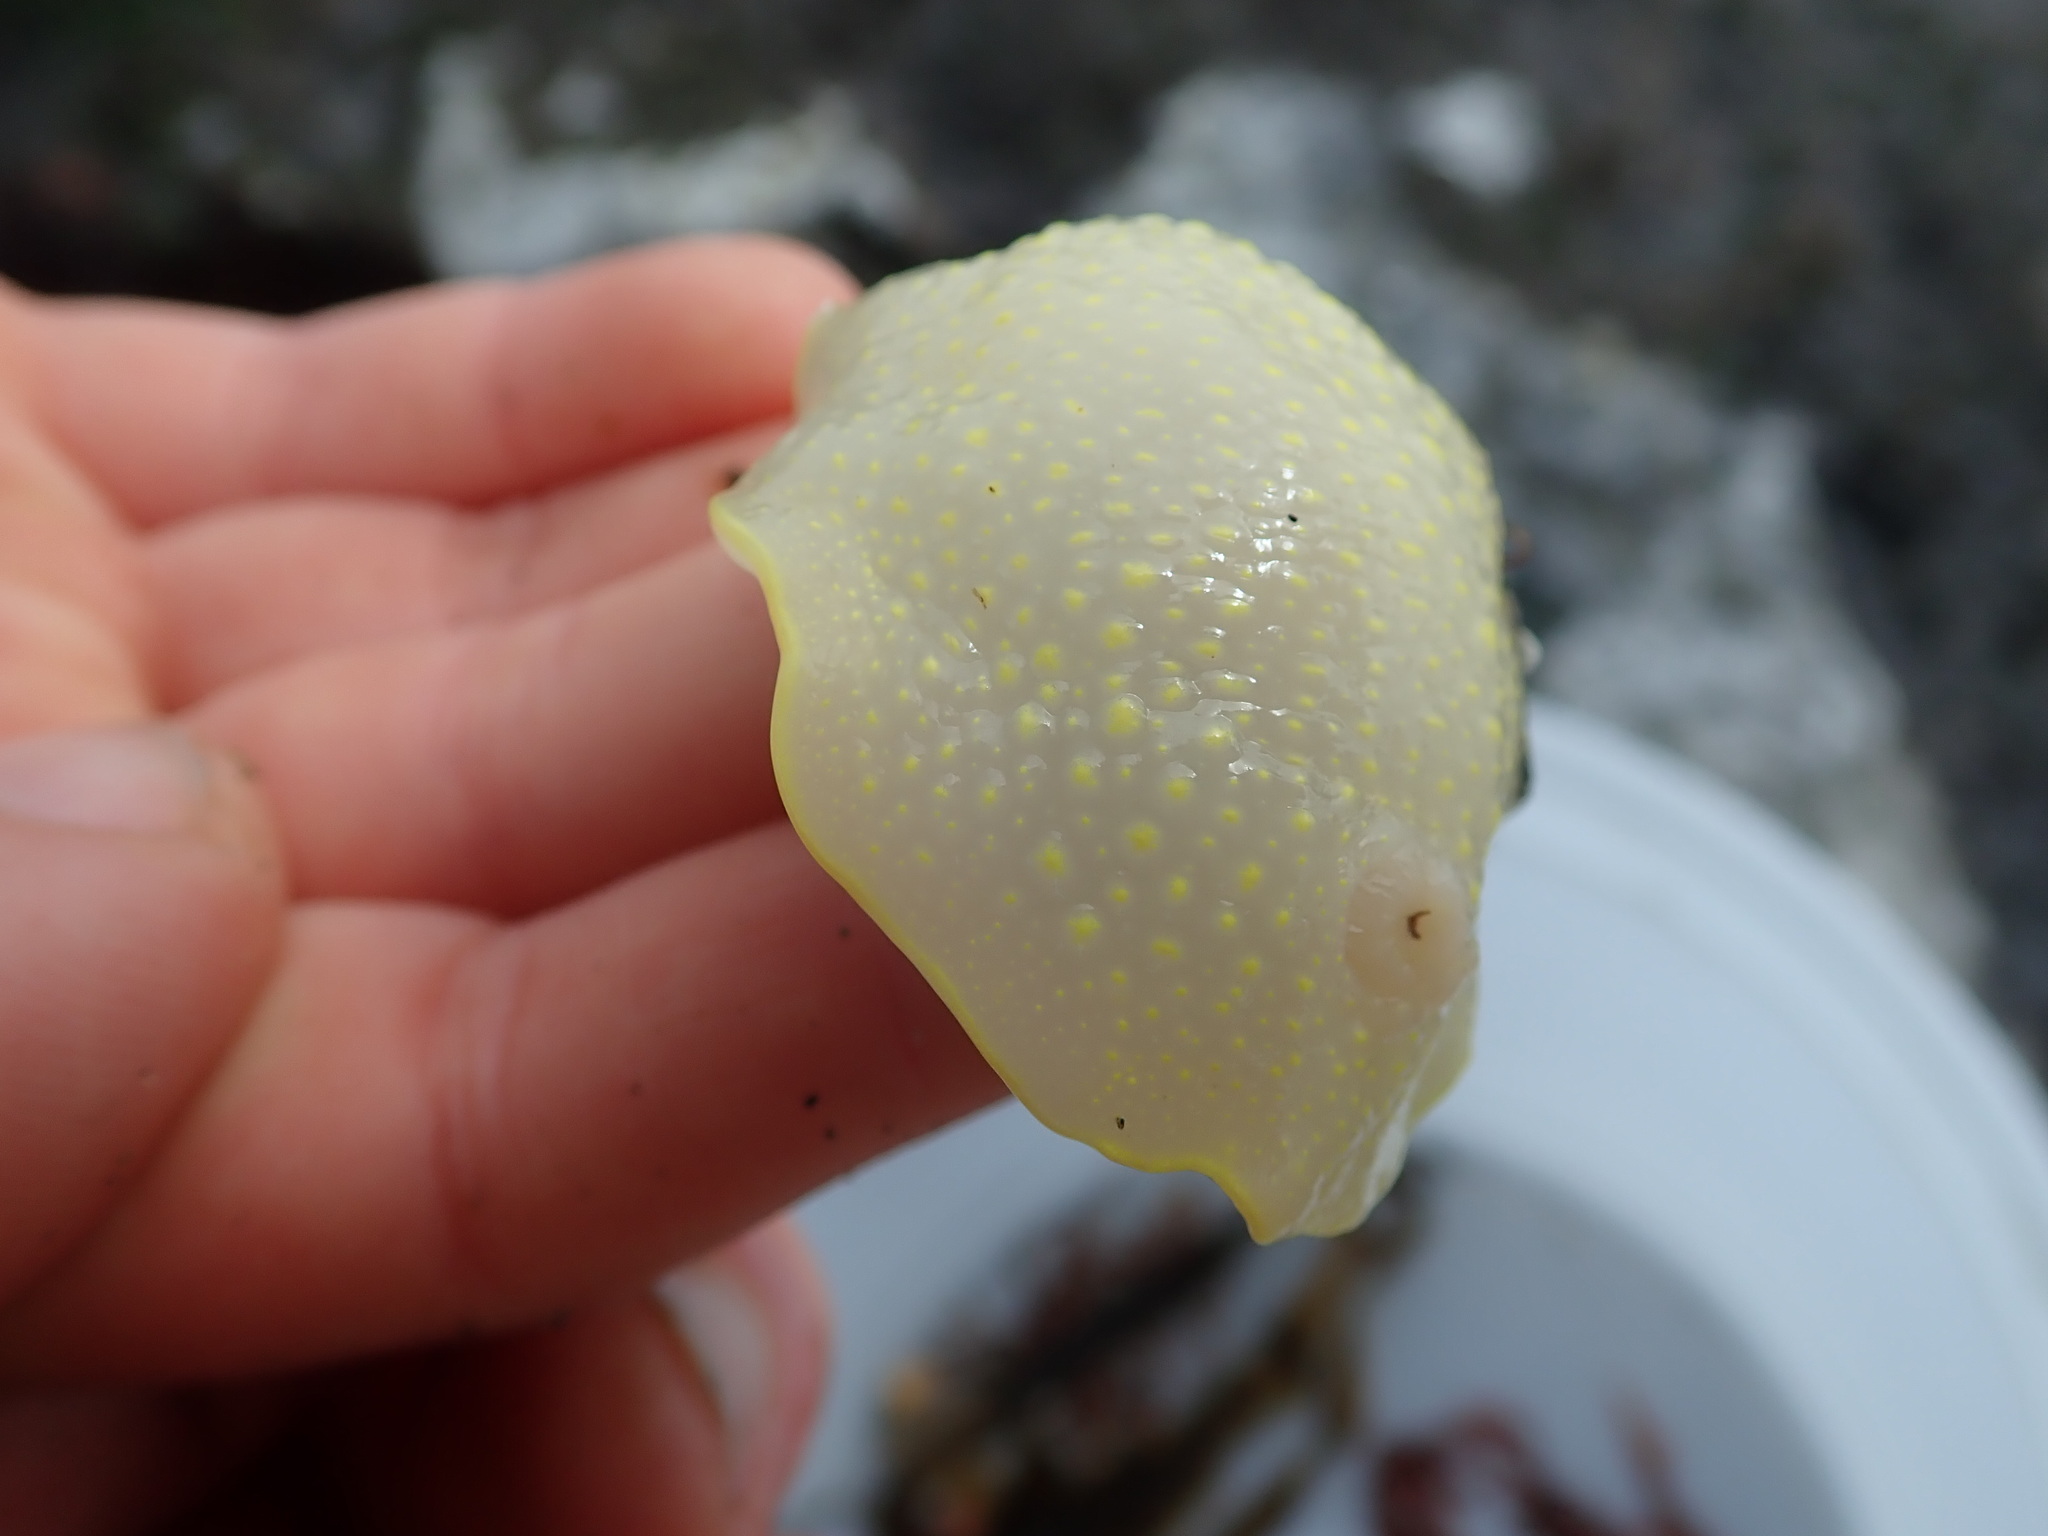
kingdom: Animalia
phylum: Mollusca
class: Gastropoda
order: Nudibranchia
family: Cadlinidae
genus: Cadlina
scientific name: Cadlina luteomarginata
